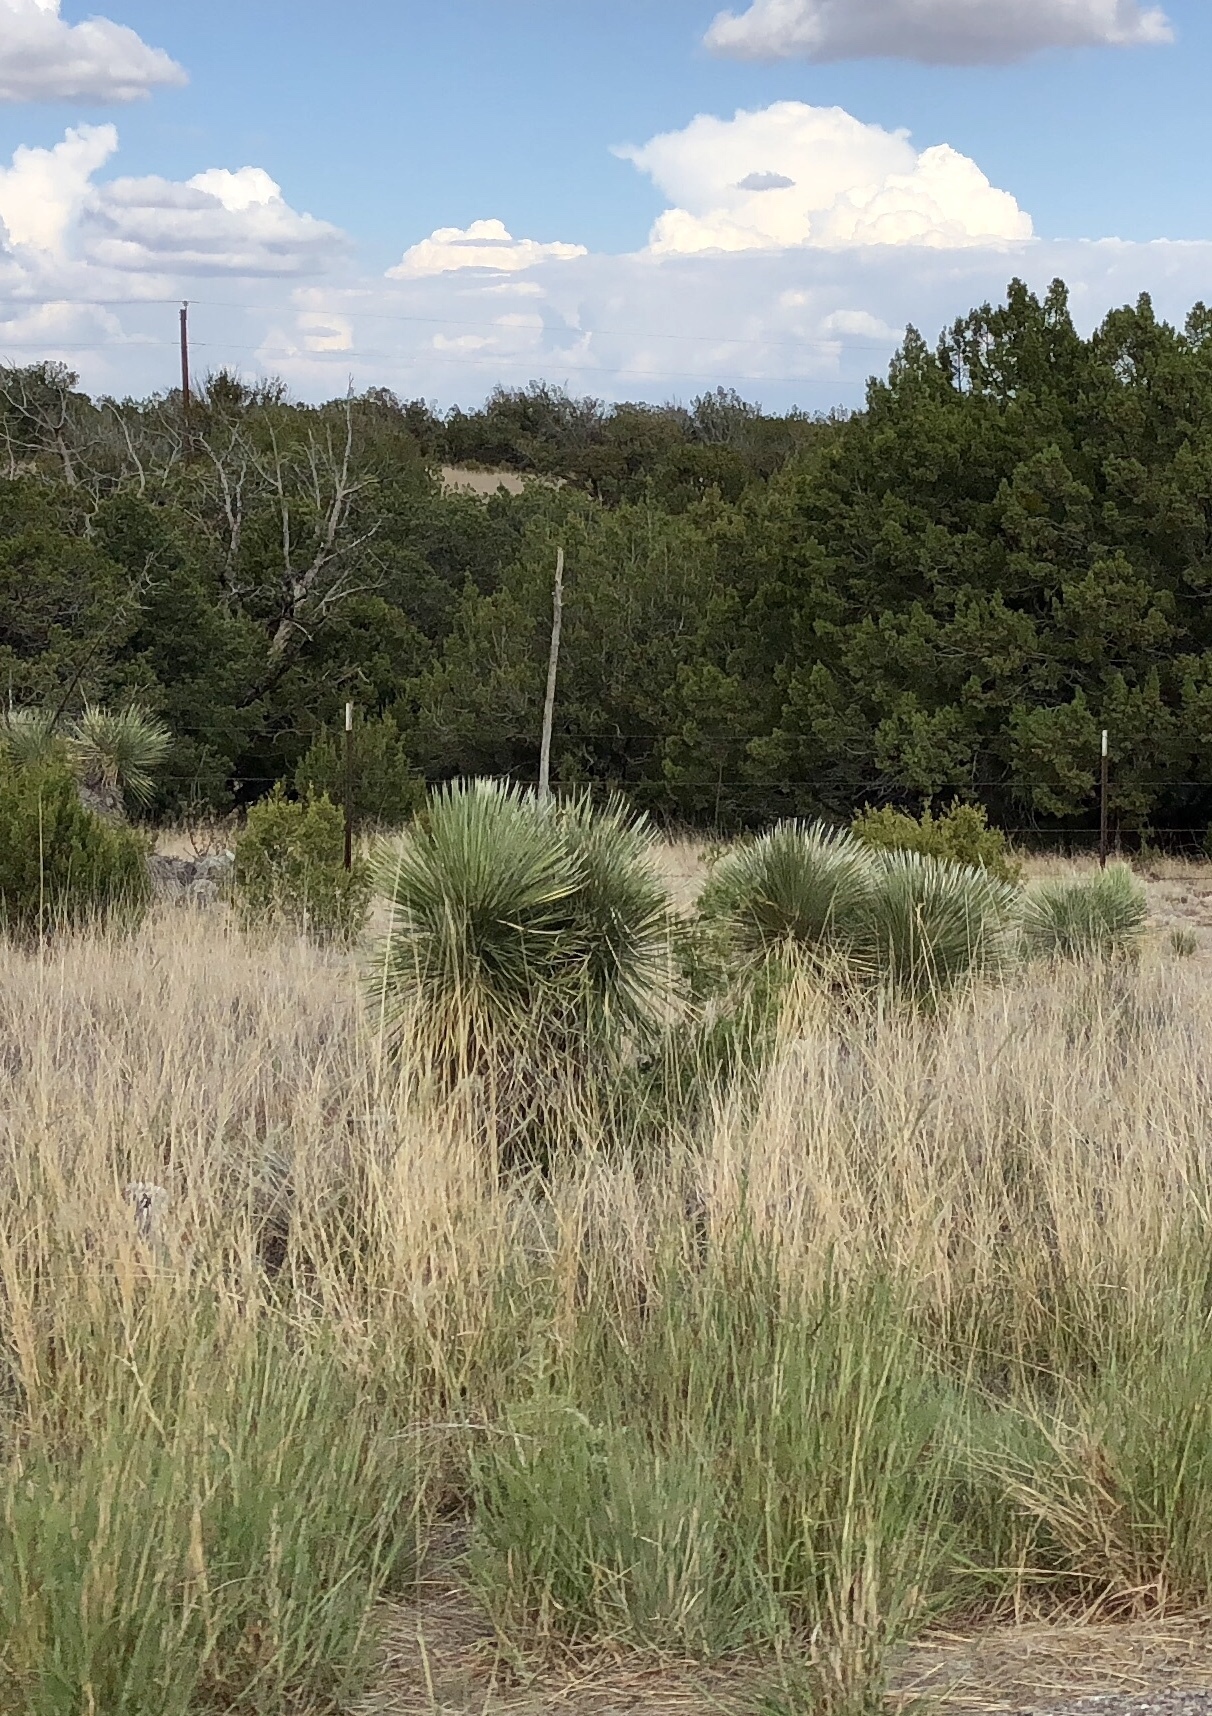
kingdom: Plantae
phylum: Tracheophyta
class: Liliopsida
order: Asparagales
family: Asparagaceae
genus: Yucca
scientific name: Yucca elata
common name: Palmella
